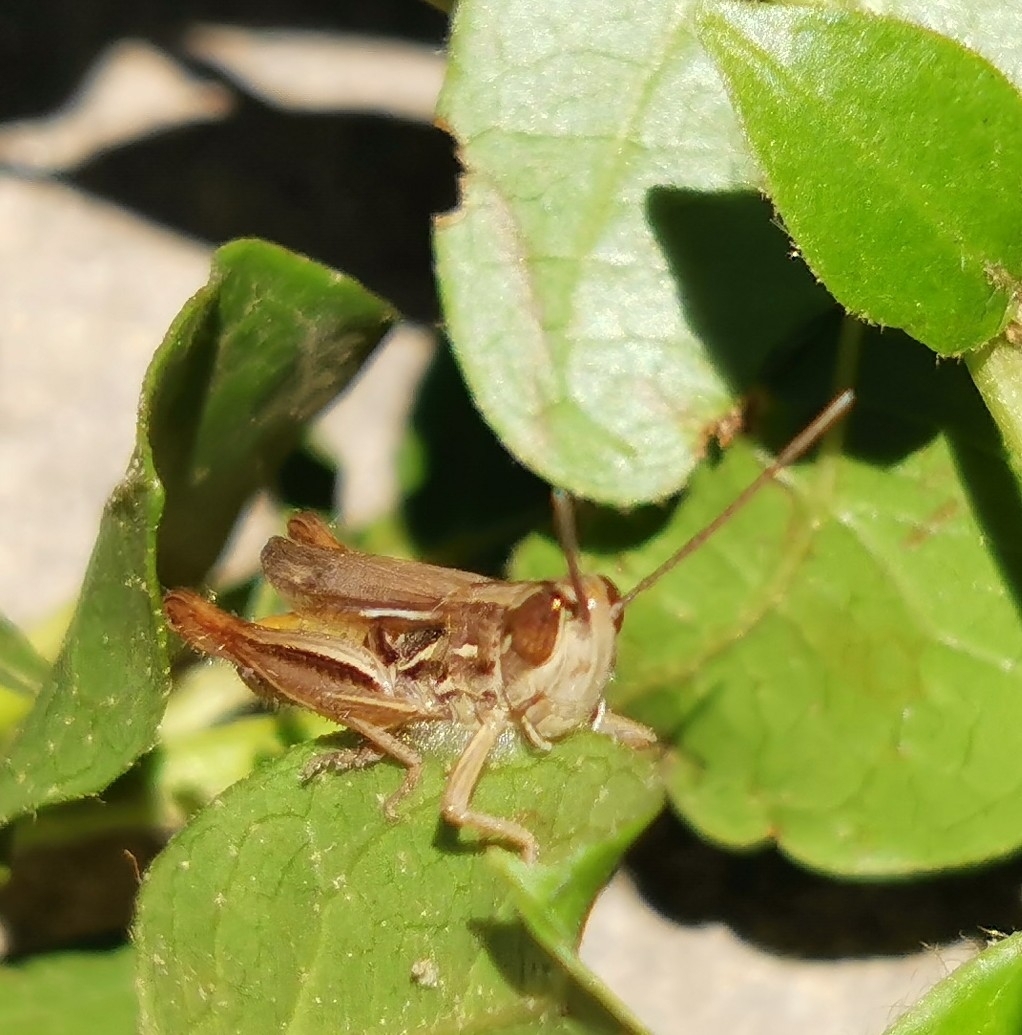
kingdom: Animalia
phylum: Arthropoda
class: Insecta
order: Orthoptera
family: Acrididae
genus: Euchorthippus
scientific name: Euchorthippus elegantulus
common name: Elegant straw grasshopper
